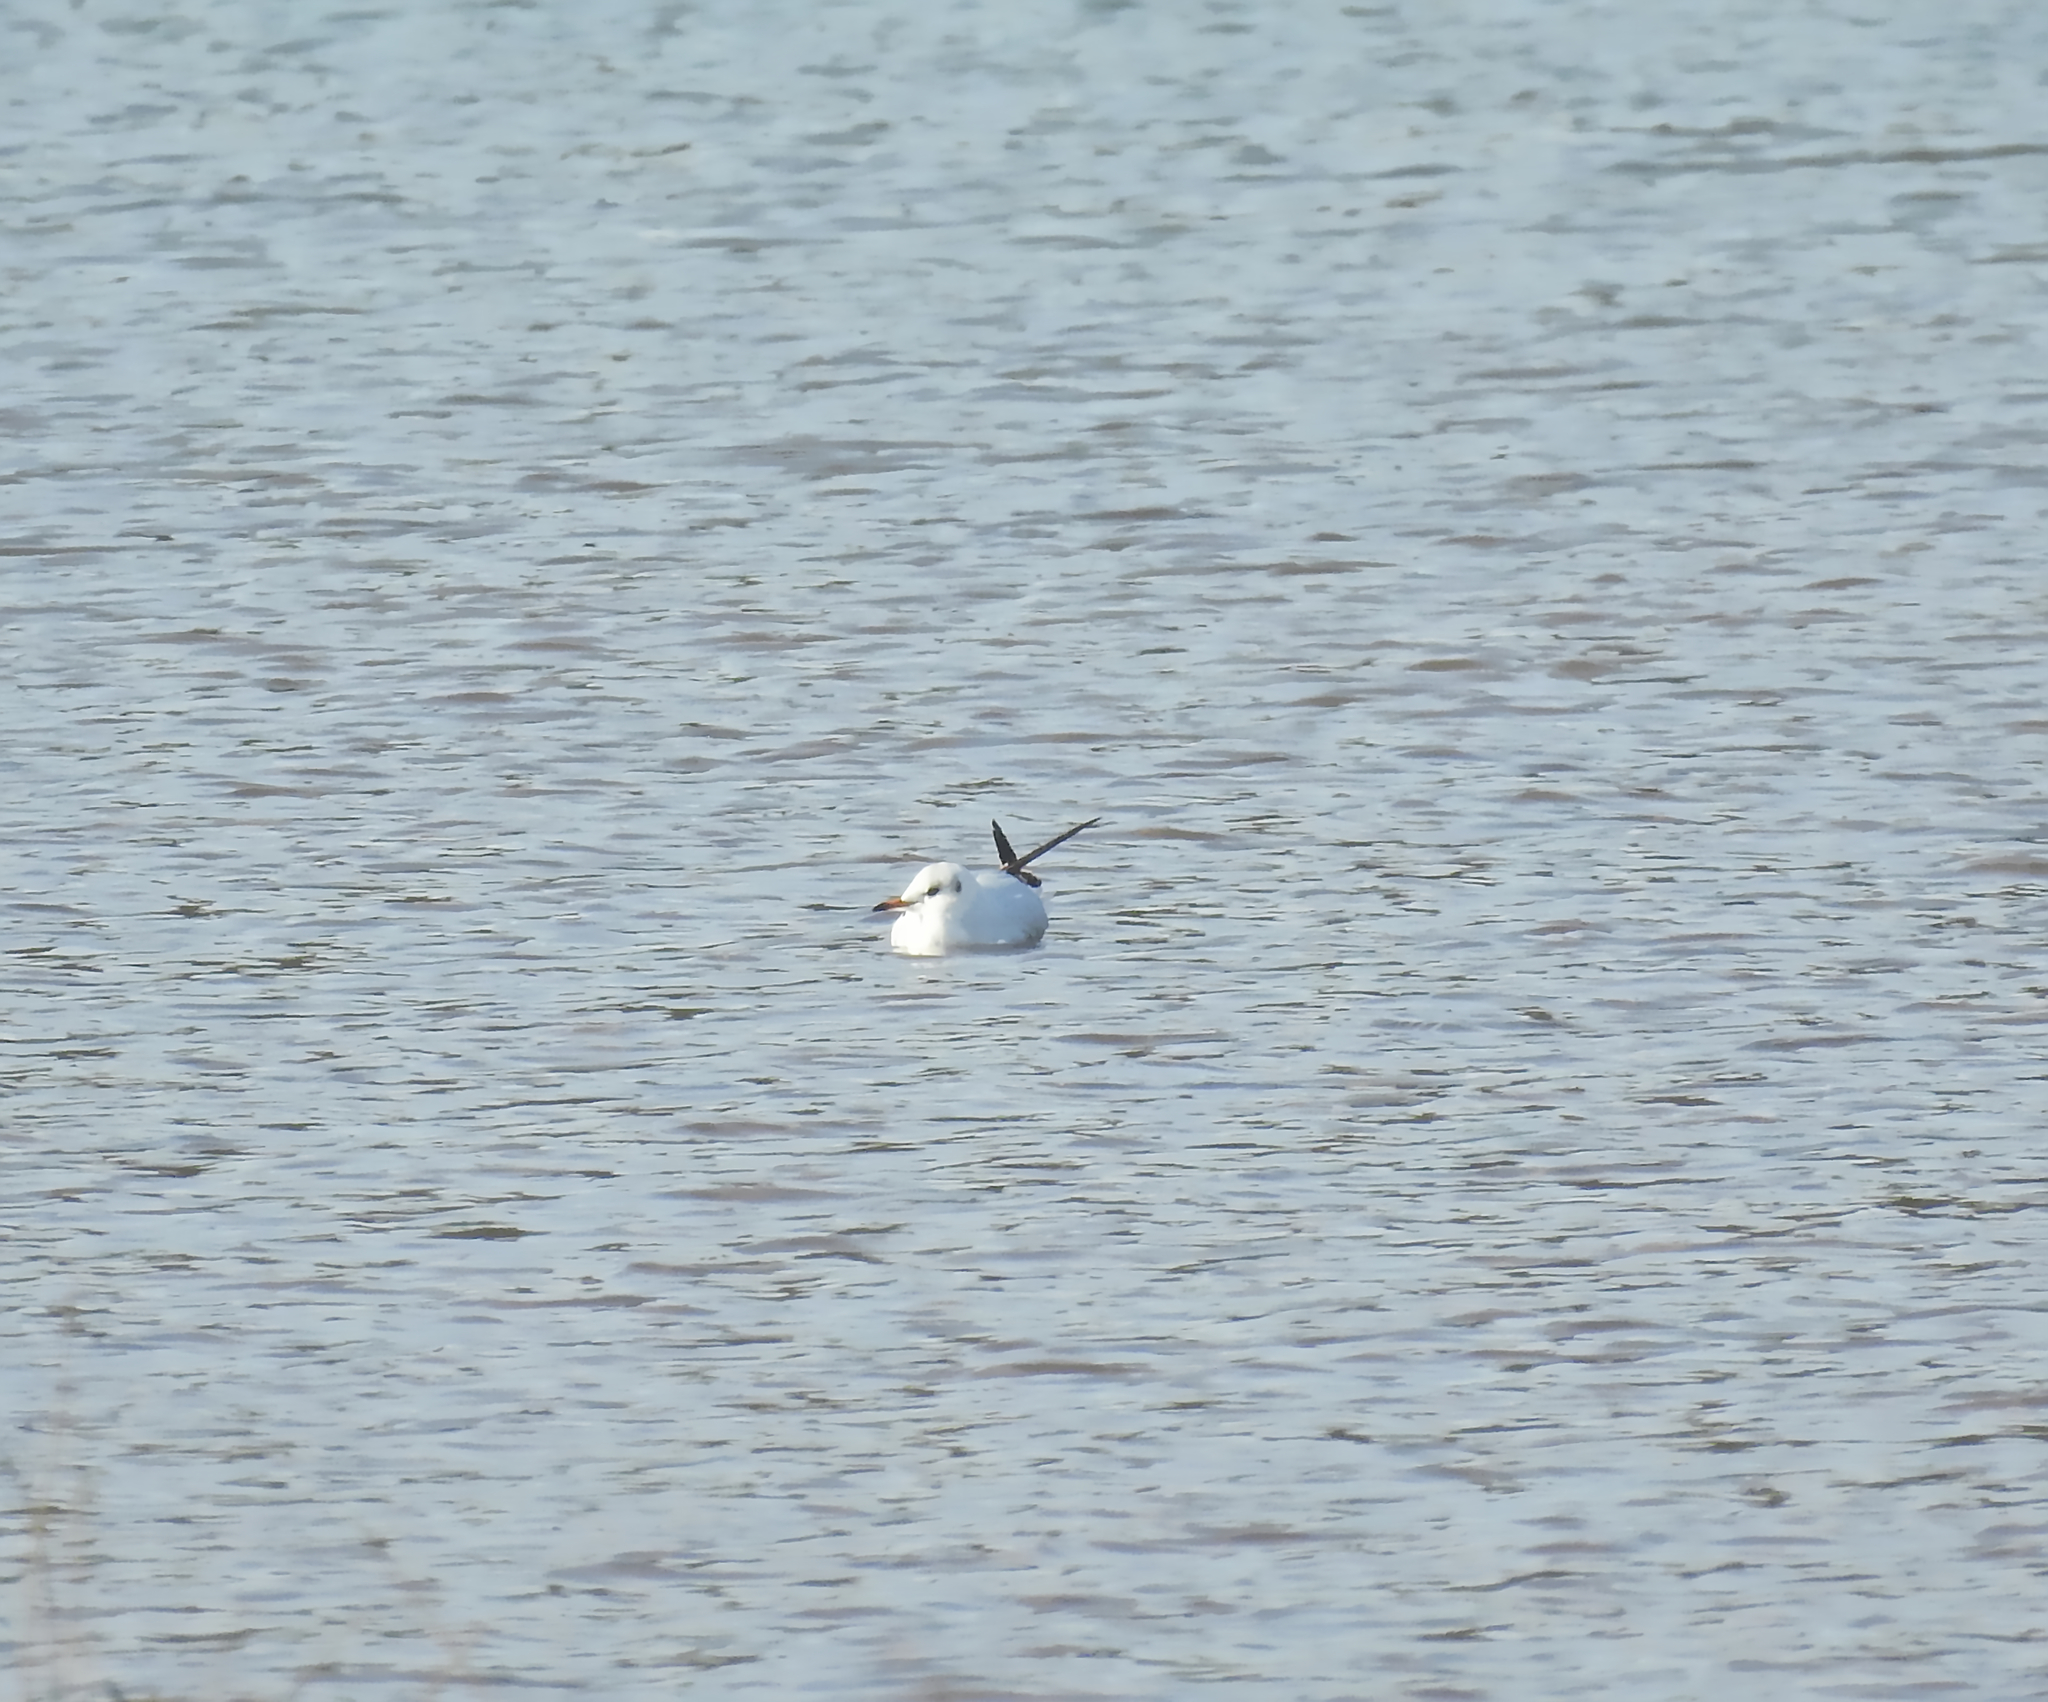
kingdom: Animalia
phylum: Chordata
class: Aves
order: Charadriiformes
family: Laridae
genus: Chroicocephalus
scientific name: Chroicocephalus ridibundus
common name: Black-headed gull
